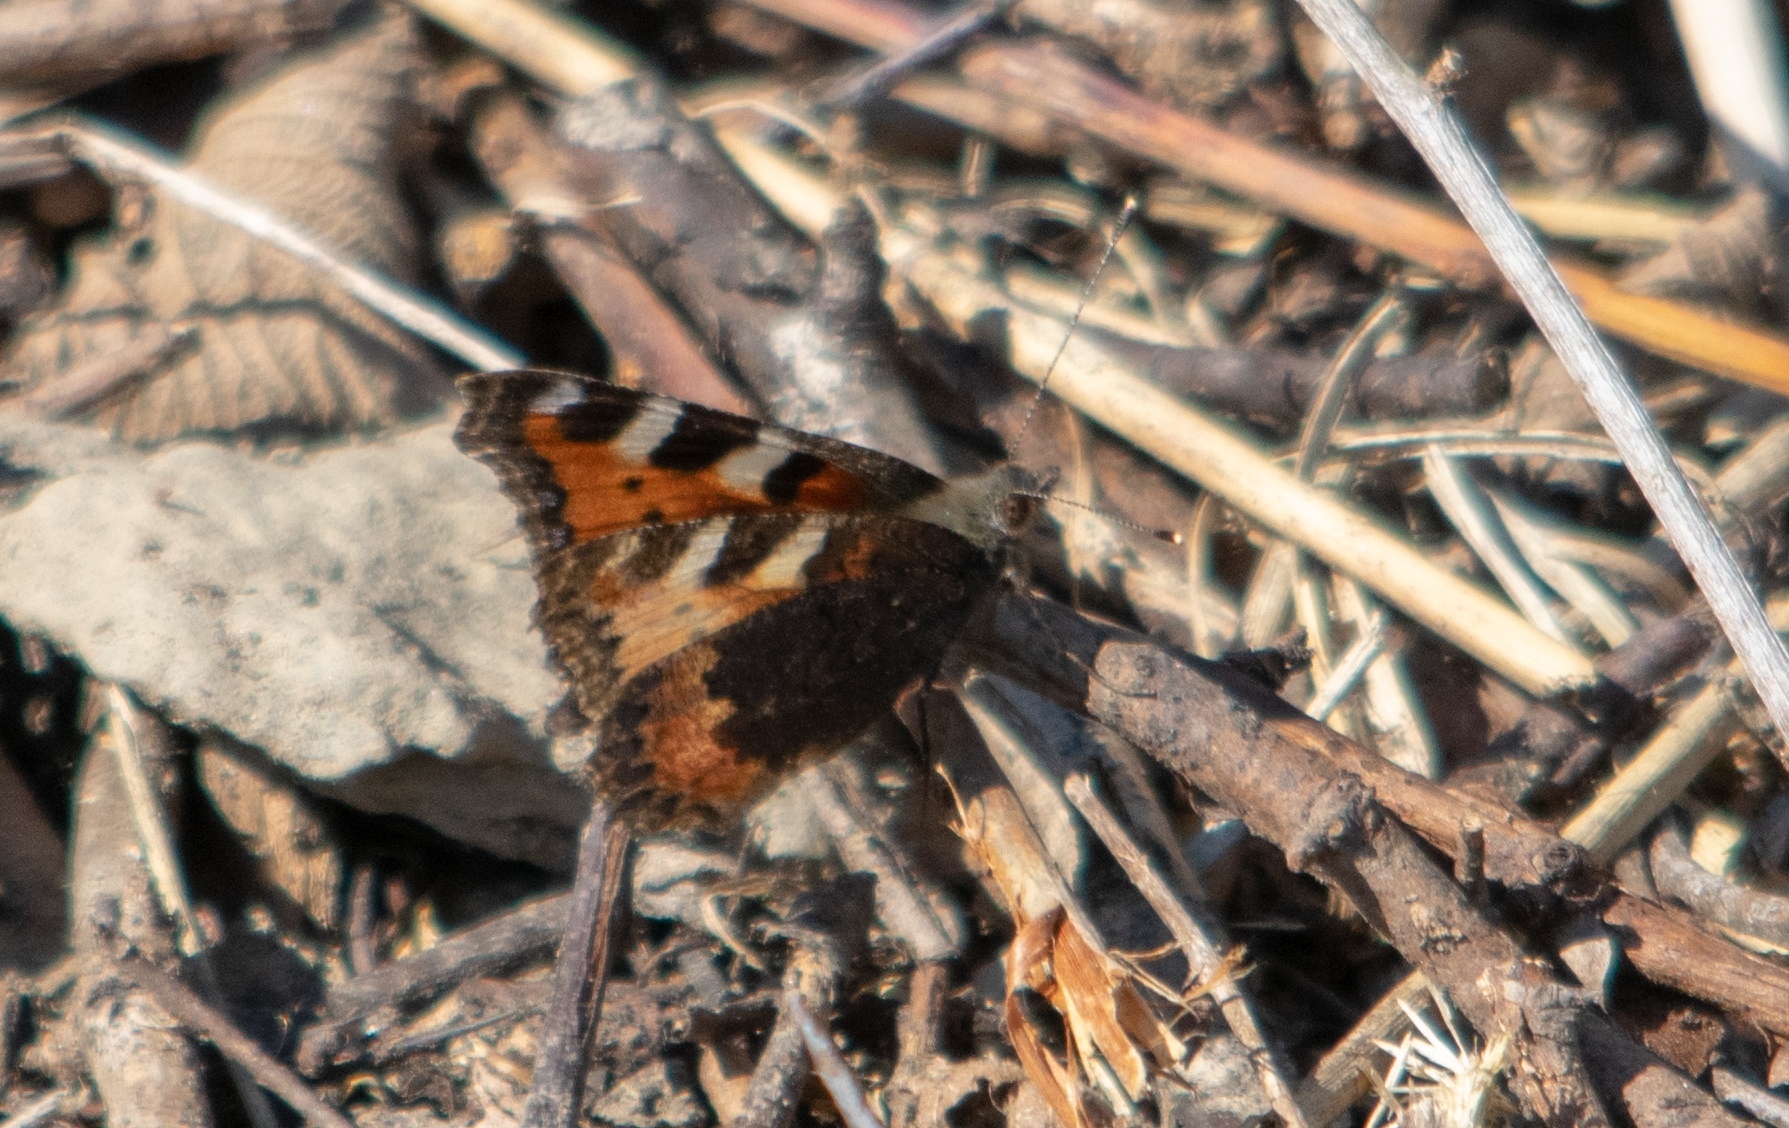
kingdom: Animalia
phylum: Arthropoda
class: Insecta
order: Lepidoptera
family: Nymphalidae
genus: Aglais
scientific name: Aglais urticae
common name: Small tortoiseshell
